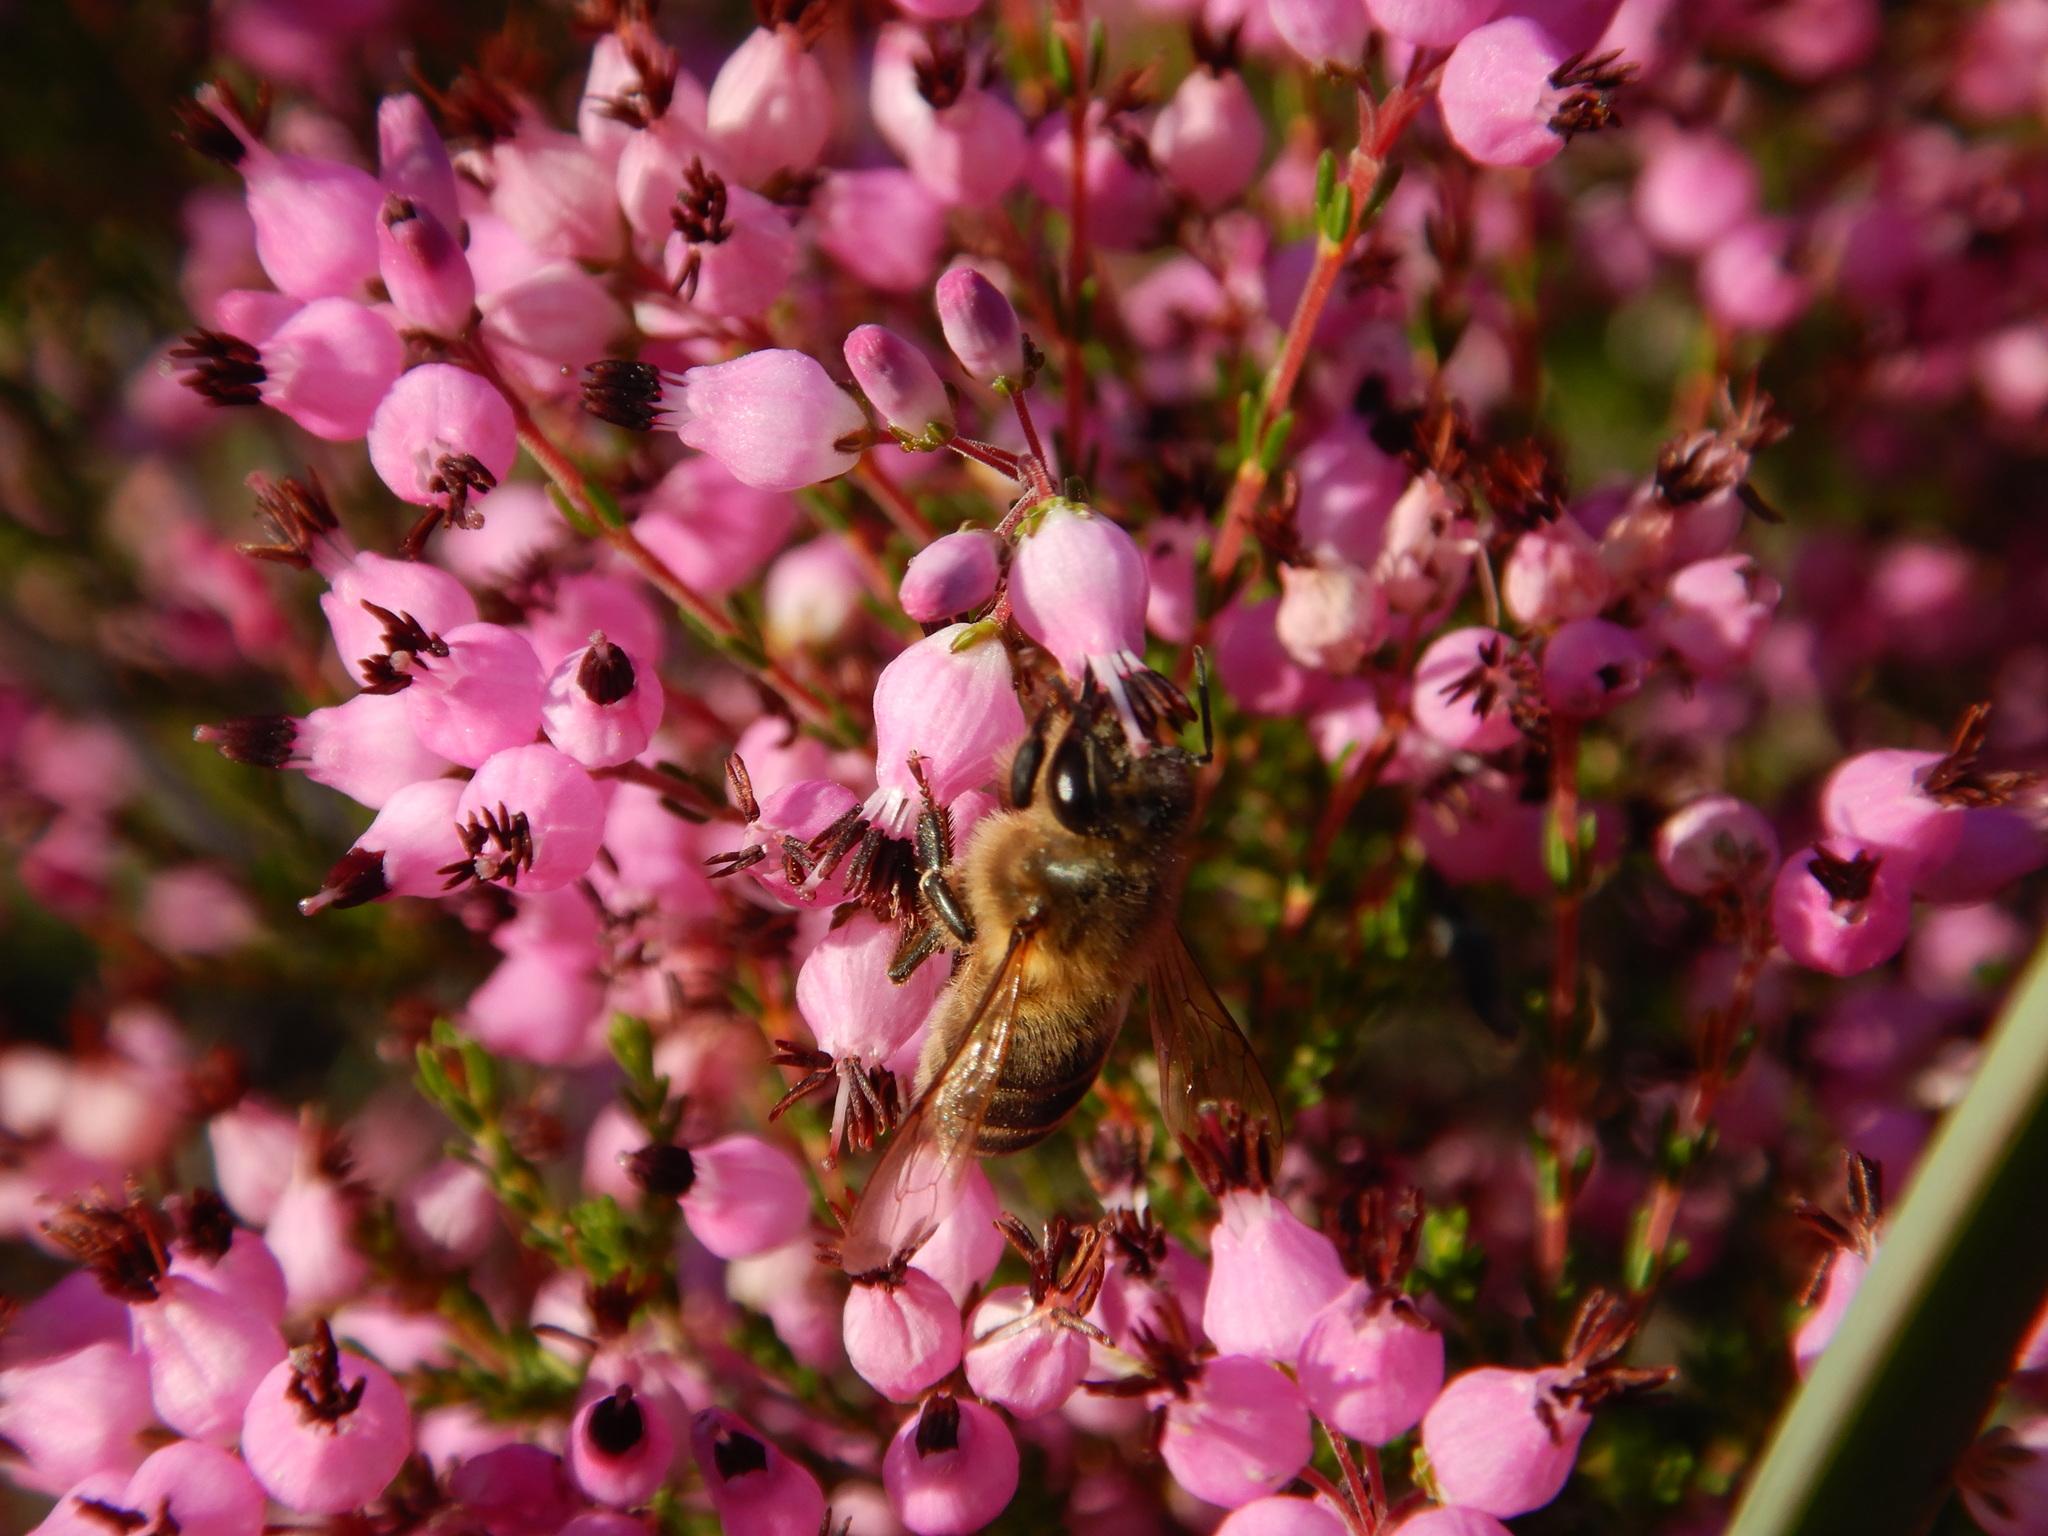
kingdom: Animalia
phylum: Arthropoda
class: Insecta
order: Hymenoptera
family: Apidae
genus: Apis
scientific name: Apis mellifera
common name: Honey bee
